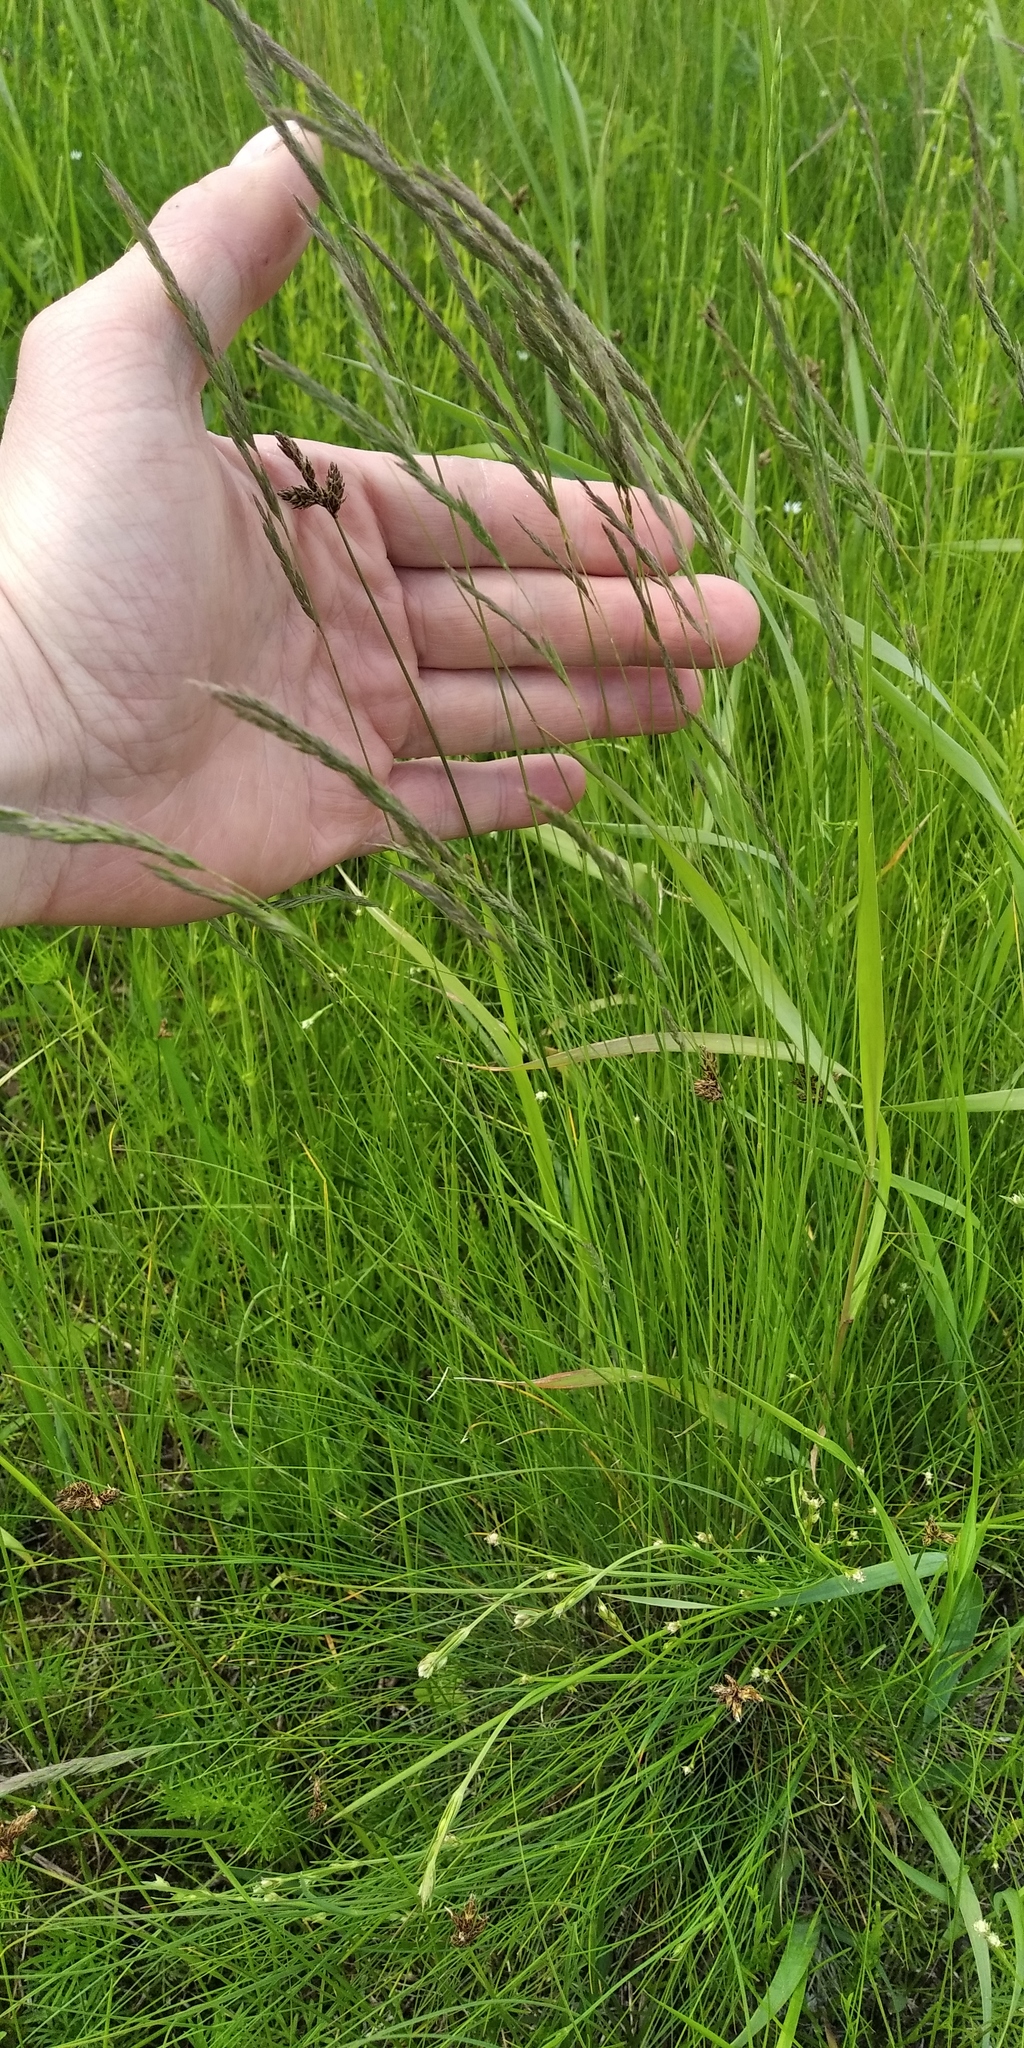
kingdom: Plantae
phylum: Tracheophyta
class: Liliopsida
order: Poales
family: Poaceae
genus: Festuca
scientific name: Festuca rubra
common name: Red fescue
